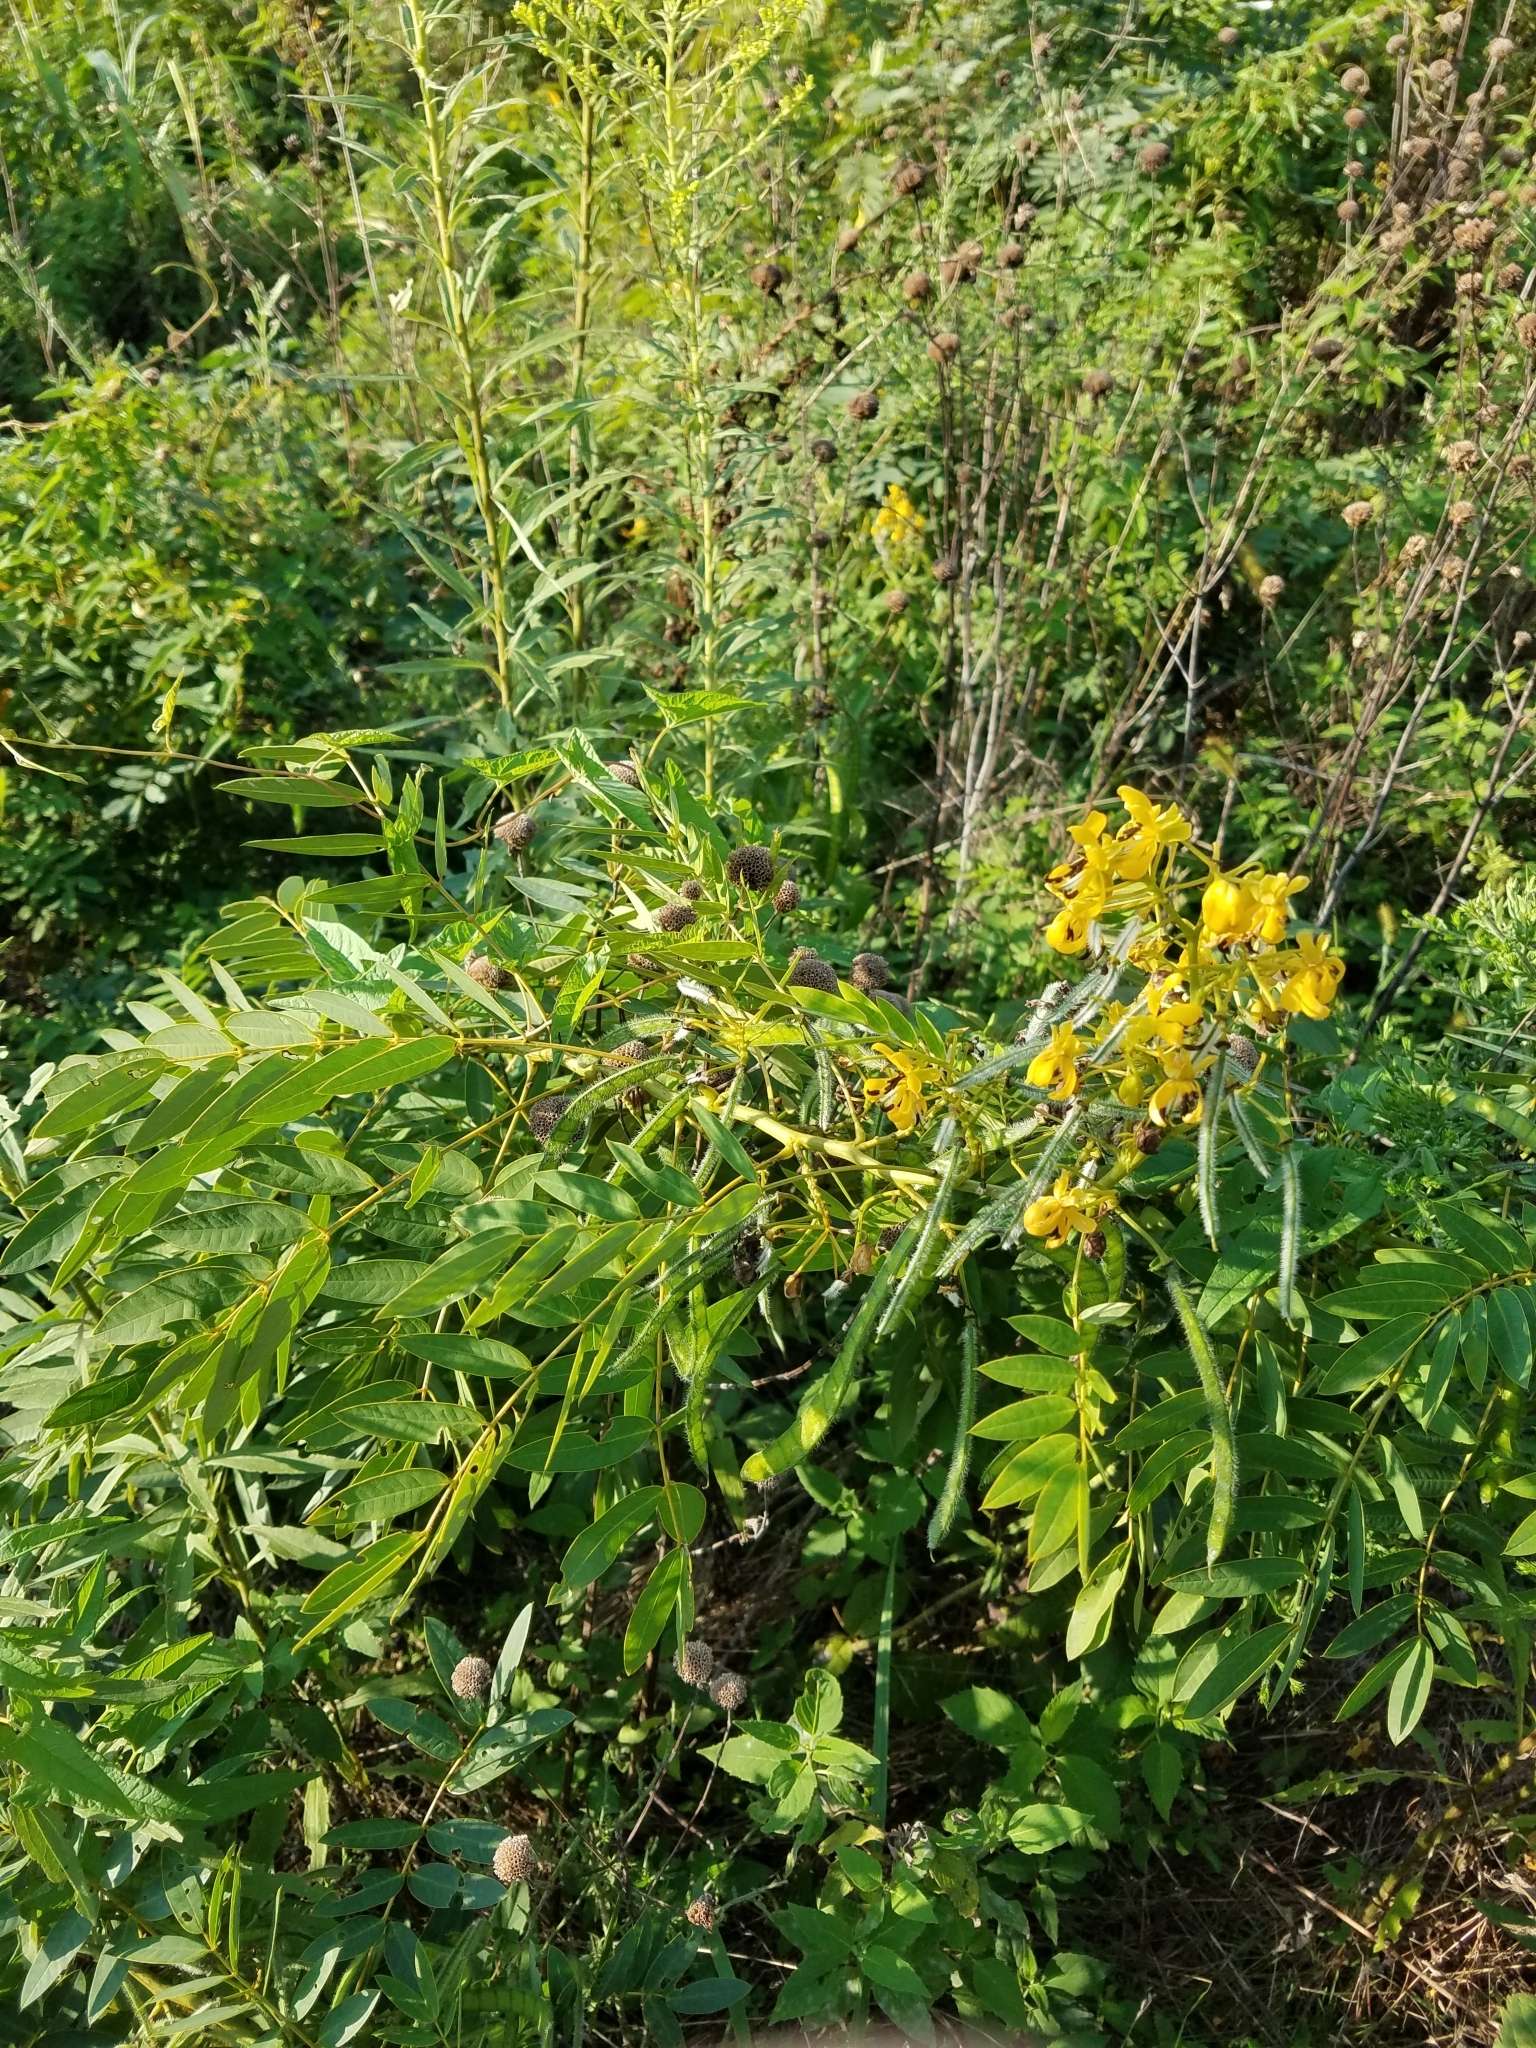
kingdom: Plantae
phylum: Tracheophyta
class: Magnoliopsida
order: Fabales
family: Fabaceae
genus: Senna
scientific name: Senna hebecarpa
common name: Wild senna
